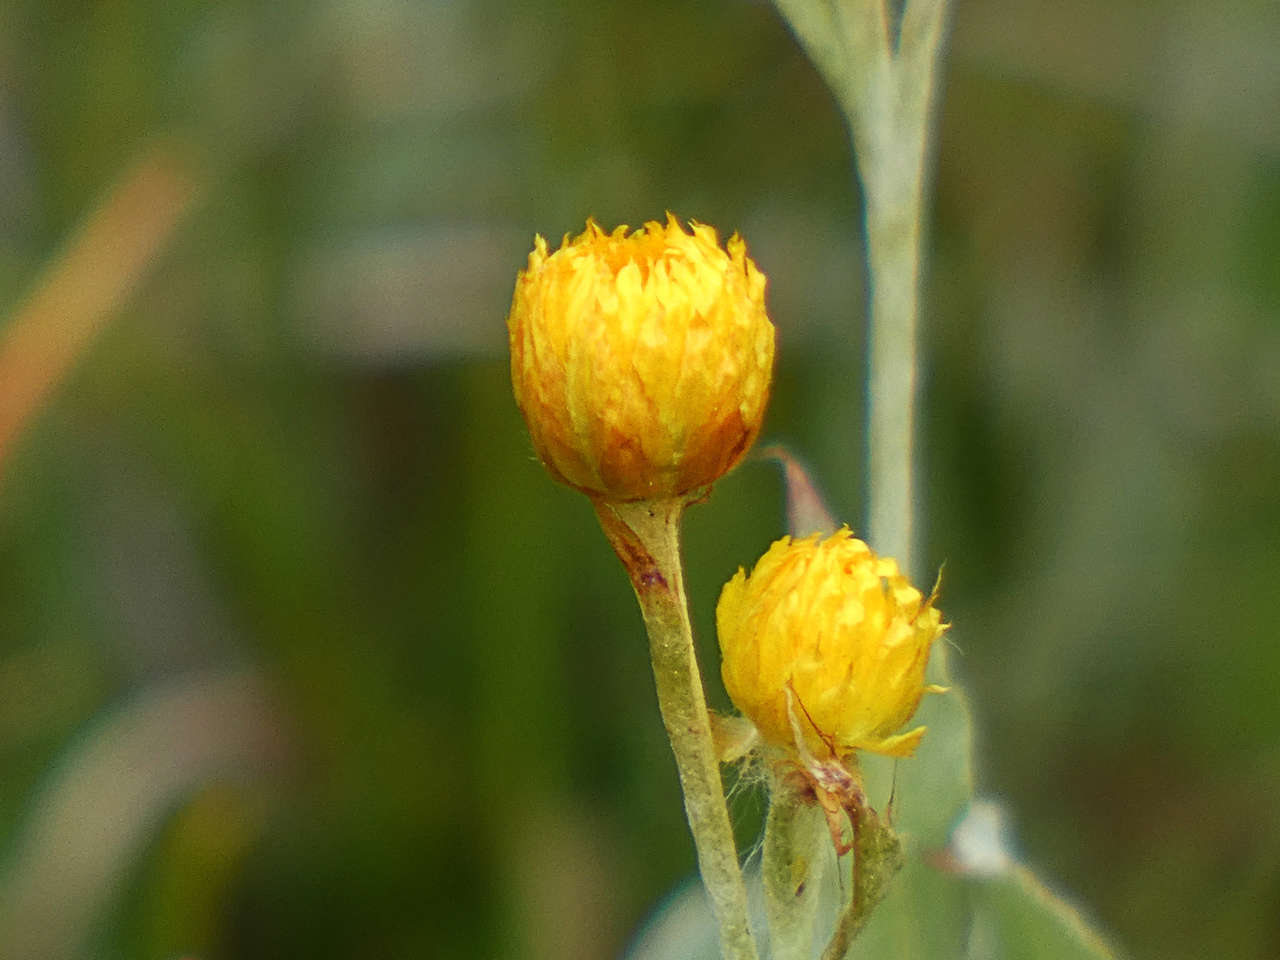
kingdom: Plantae
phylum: Tracheophyta
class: Magnoliopsida
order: Asterales
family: Asteraceae
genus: Chrysocephalum
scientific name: Chrysocephalum apiculatum
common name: Common everlasting
